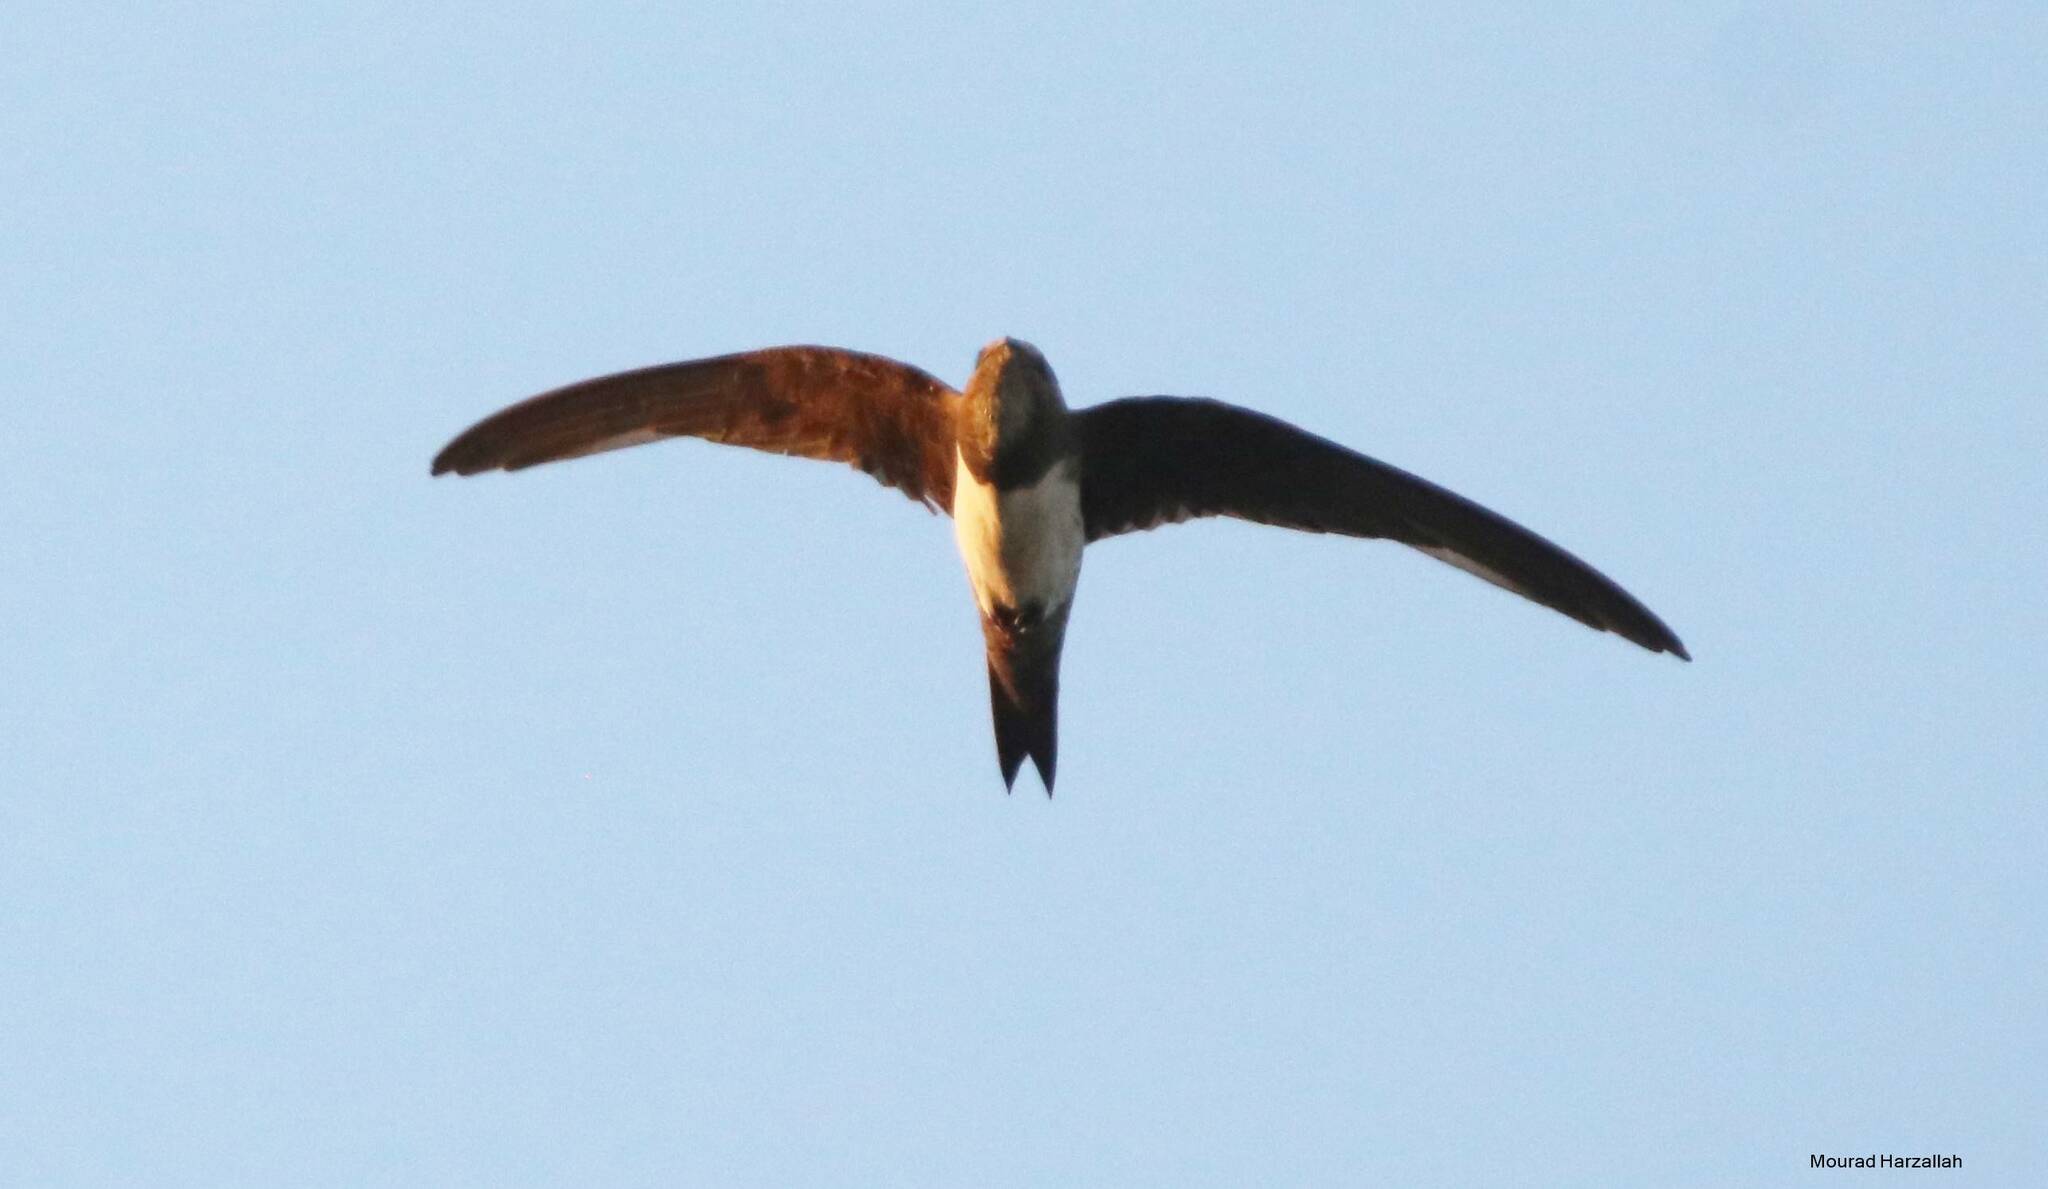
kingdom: Animalia
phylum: Chordata
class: Aves
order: Apodiformes
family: Apodidae
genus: Tachymarptis
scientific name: Tachymarptis melba
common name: Alpine swift
